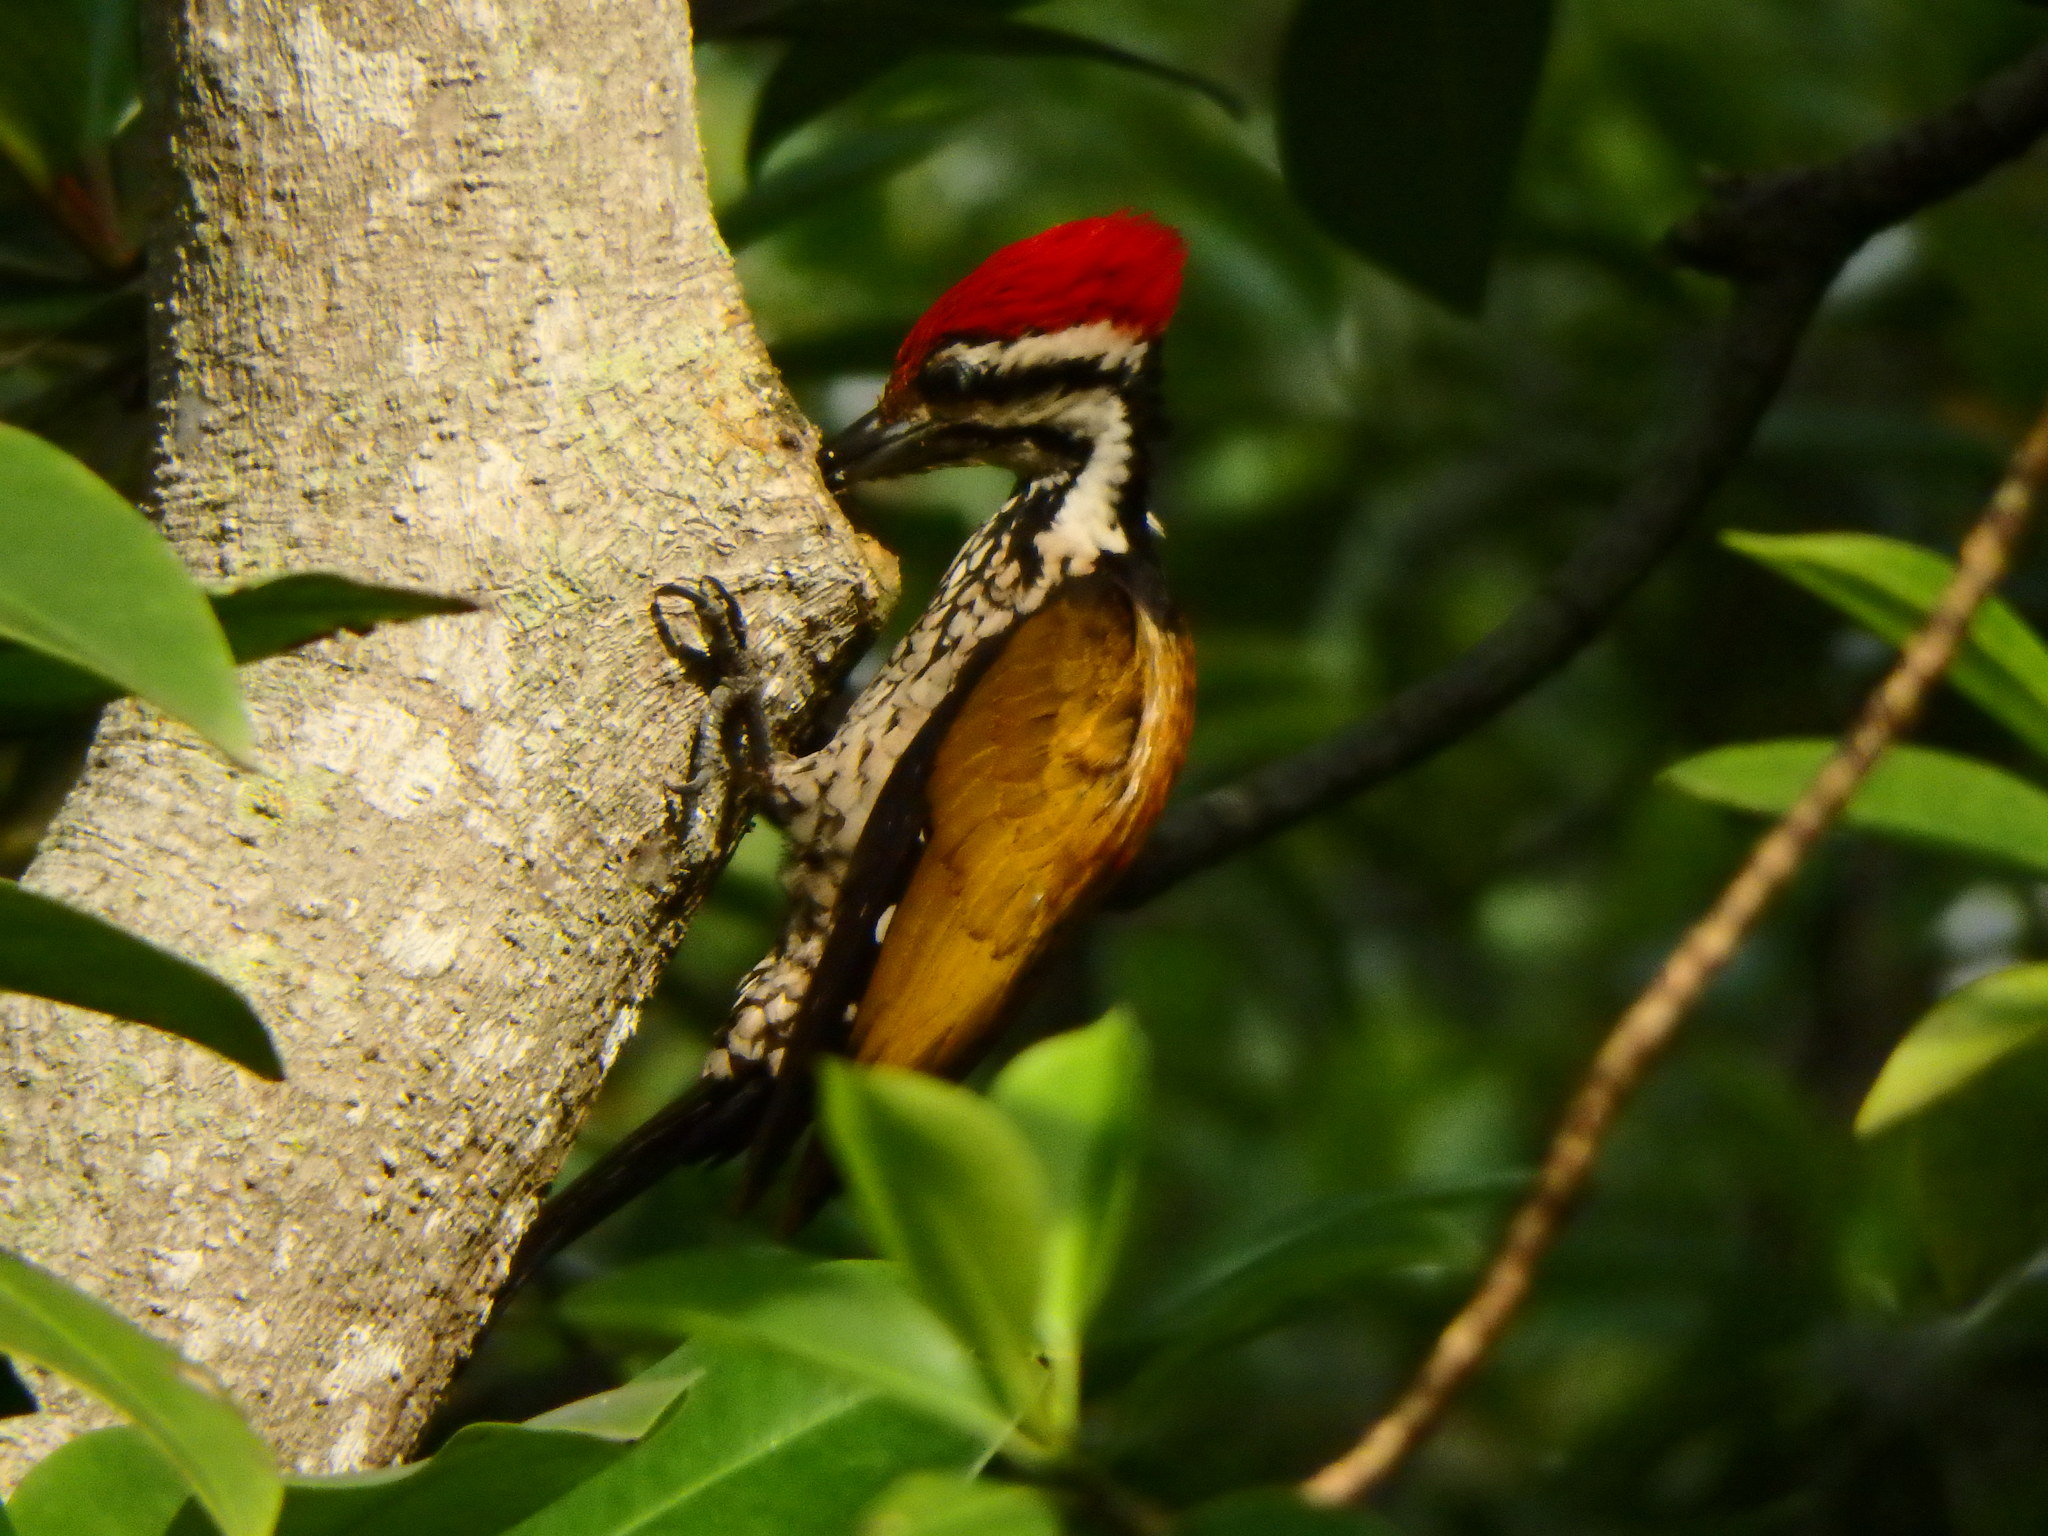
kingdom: Animalia
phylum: Chordata
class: Aves
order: Piciformes
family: Picidae
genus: Dinopium
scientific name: Dinopium javanense
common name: Common flameback
